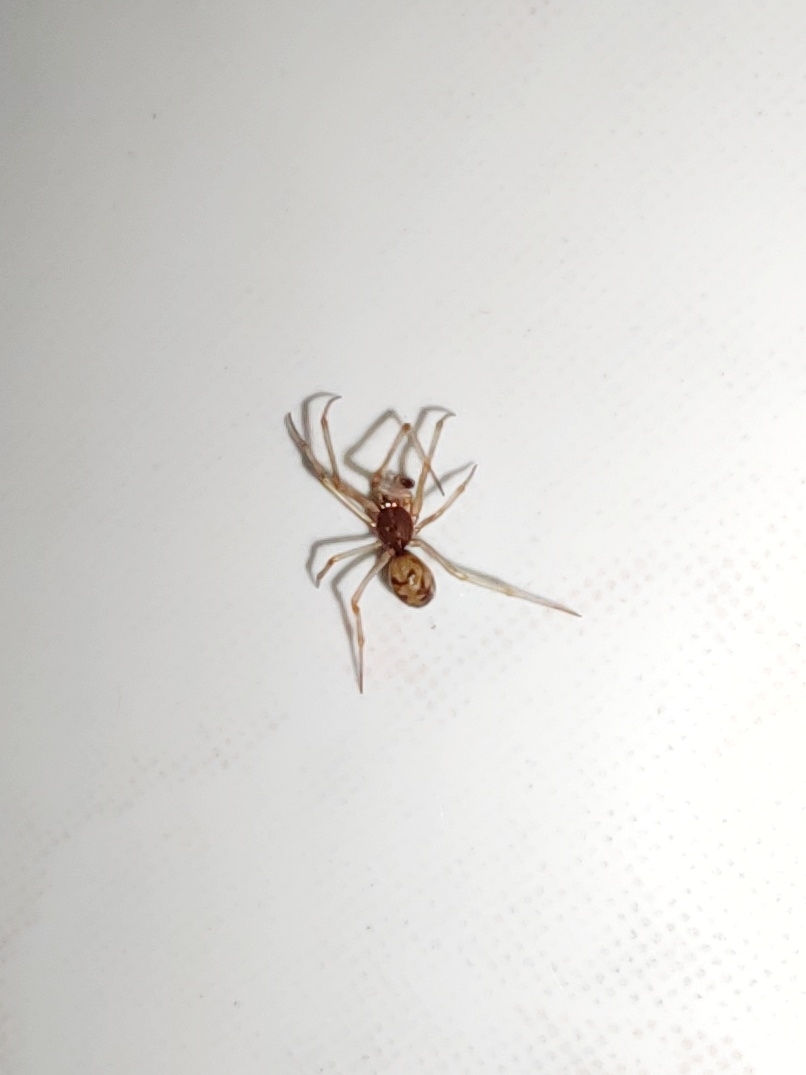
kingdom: Animalia
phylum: Arthropoda
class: Arachnida
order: Araneae
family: Theridiidae
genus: Steatoda
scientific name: Steatoda triangulosa
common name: Triangulate bud spider
